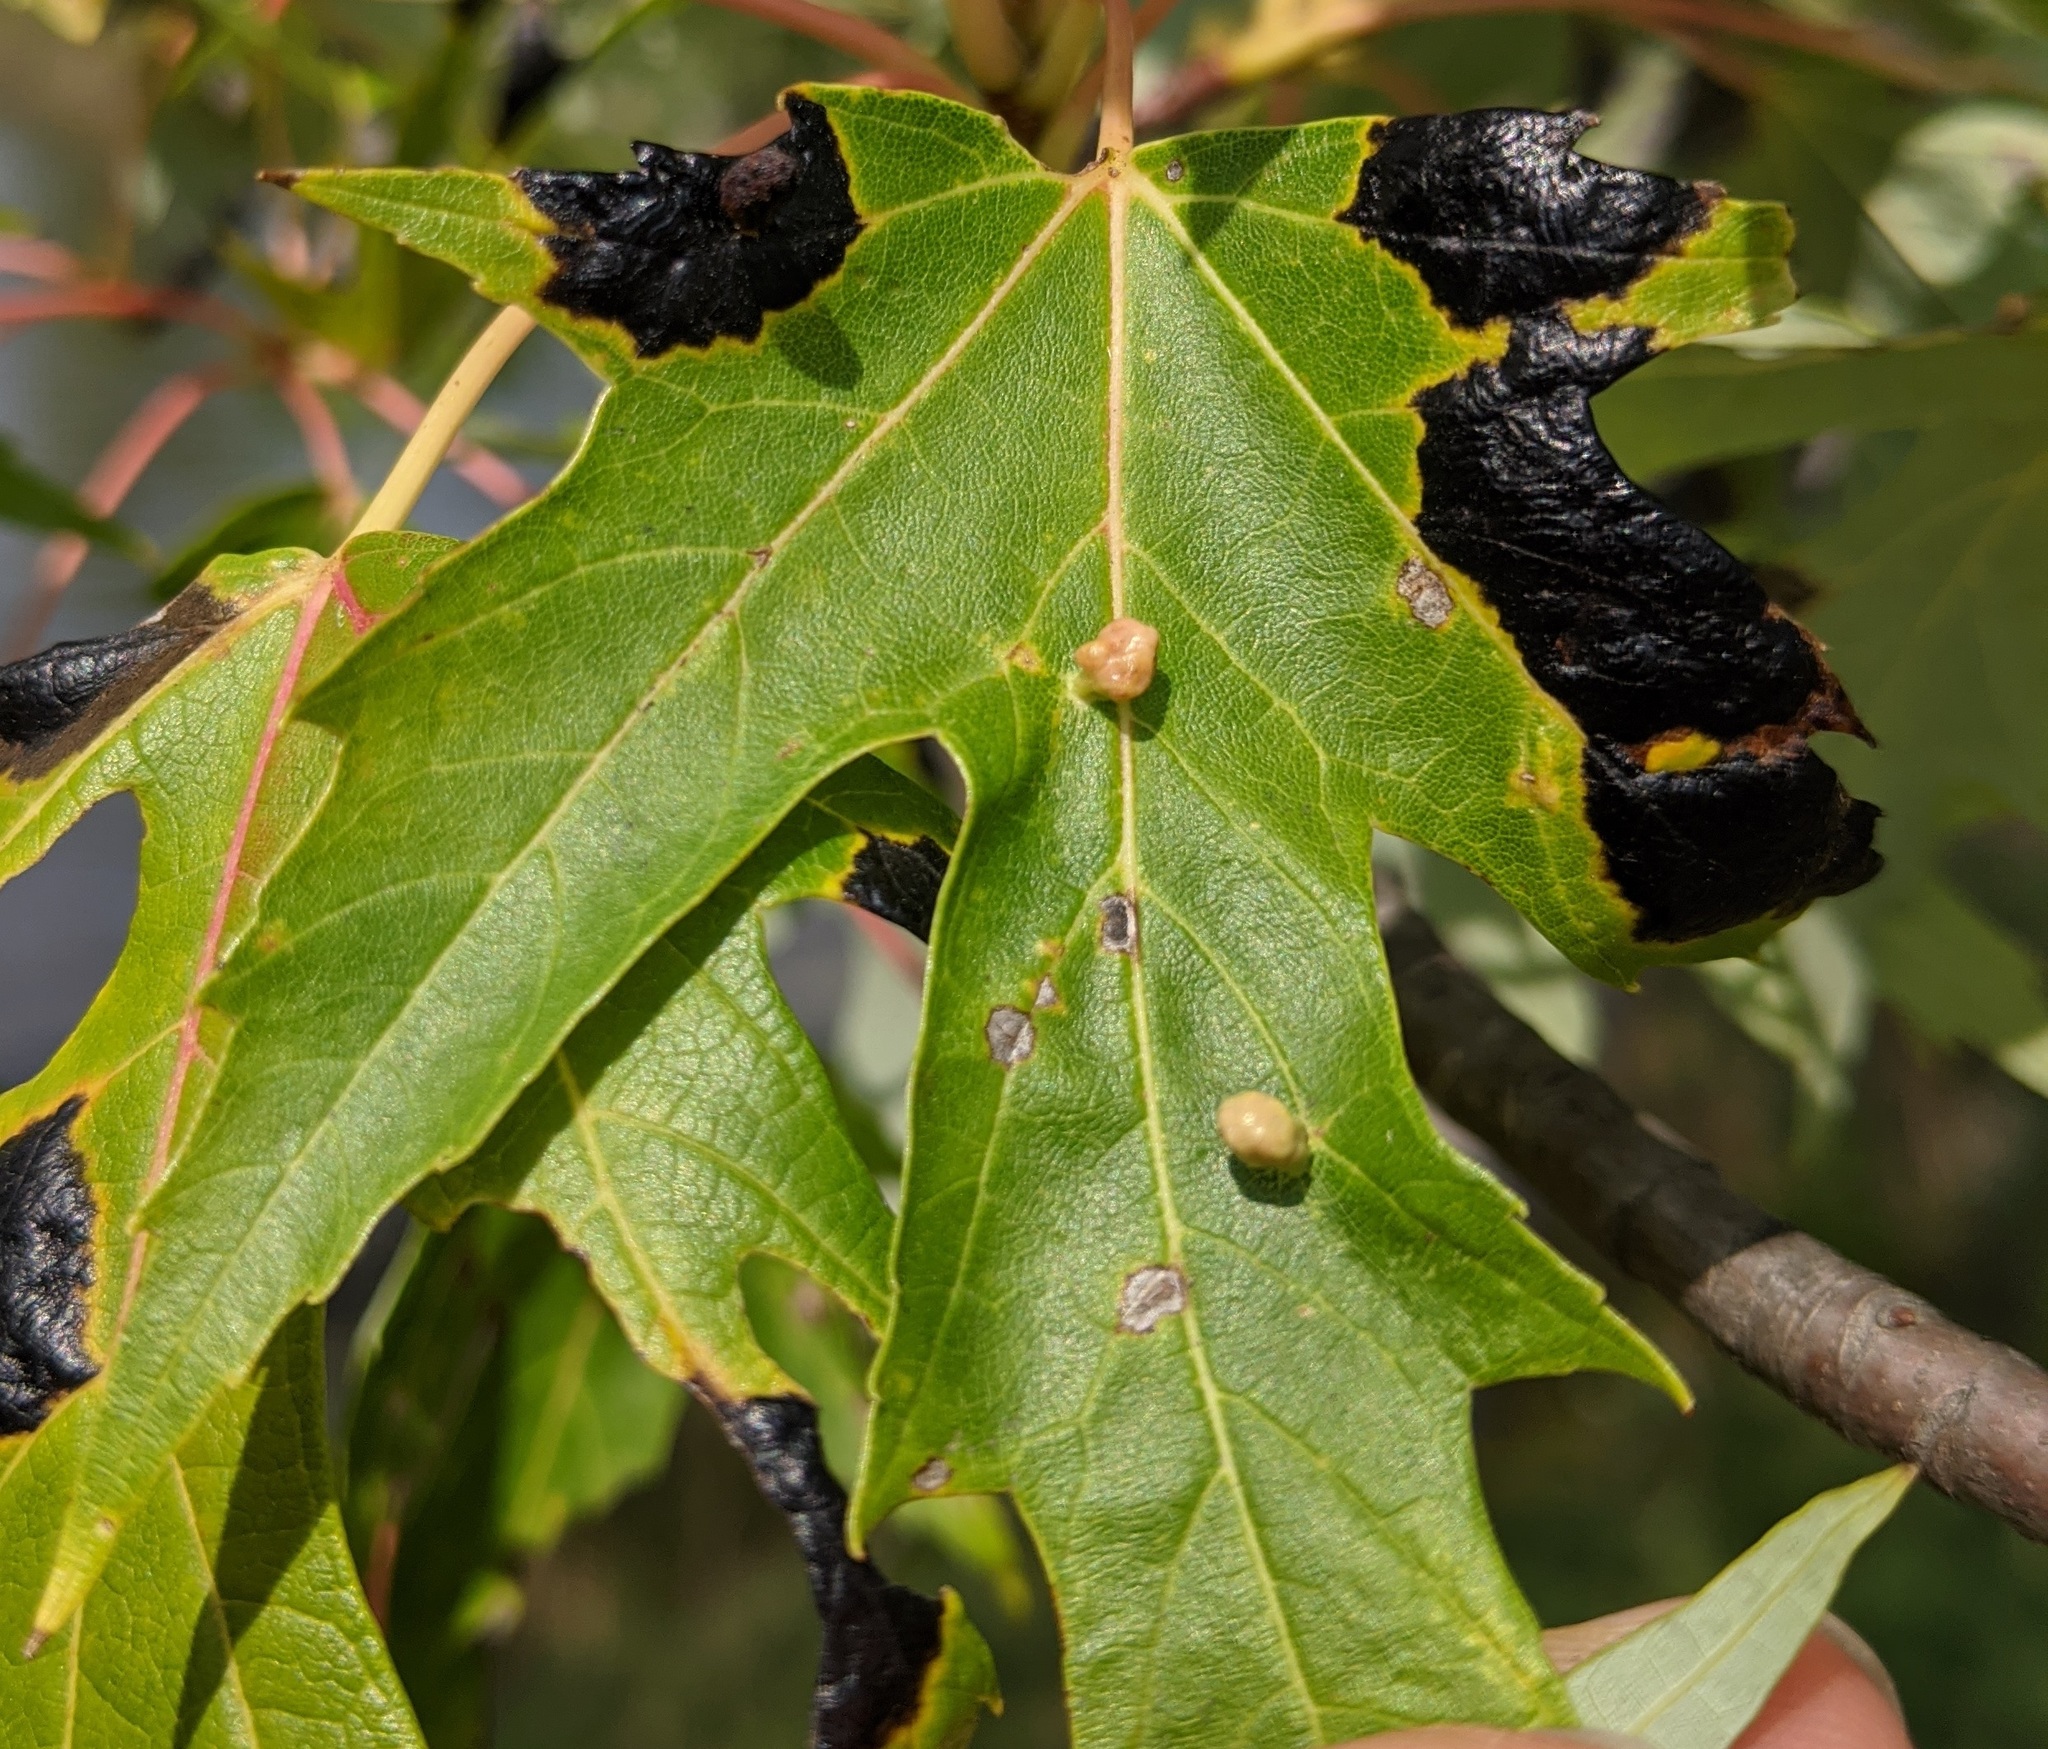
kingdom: Animalia
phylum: Arthropoda
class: Arachnida
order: Trombidiformes
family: Eriophyidae
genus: Vasates
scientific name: Vasates quadripedes
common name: Maple bladder gall mite
